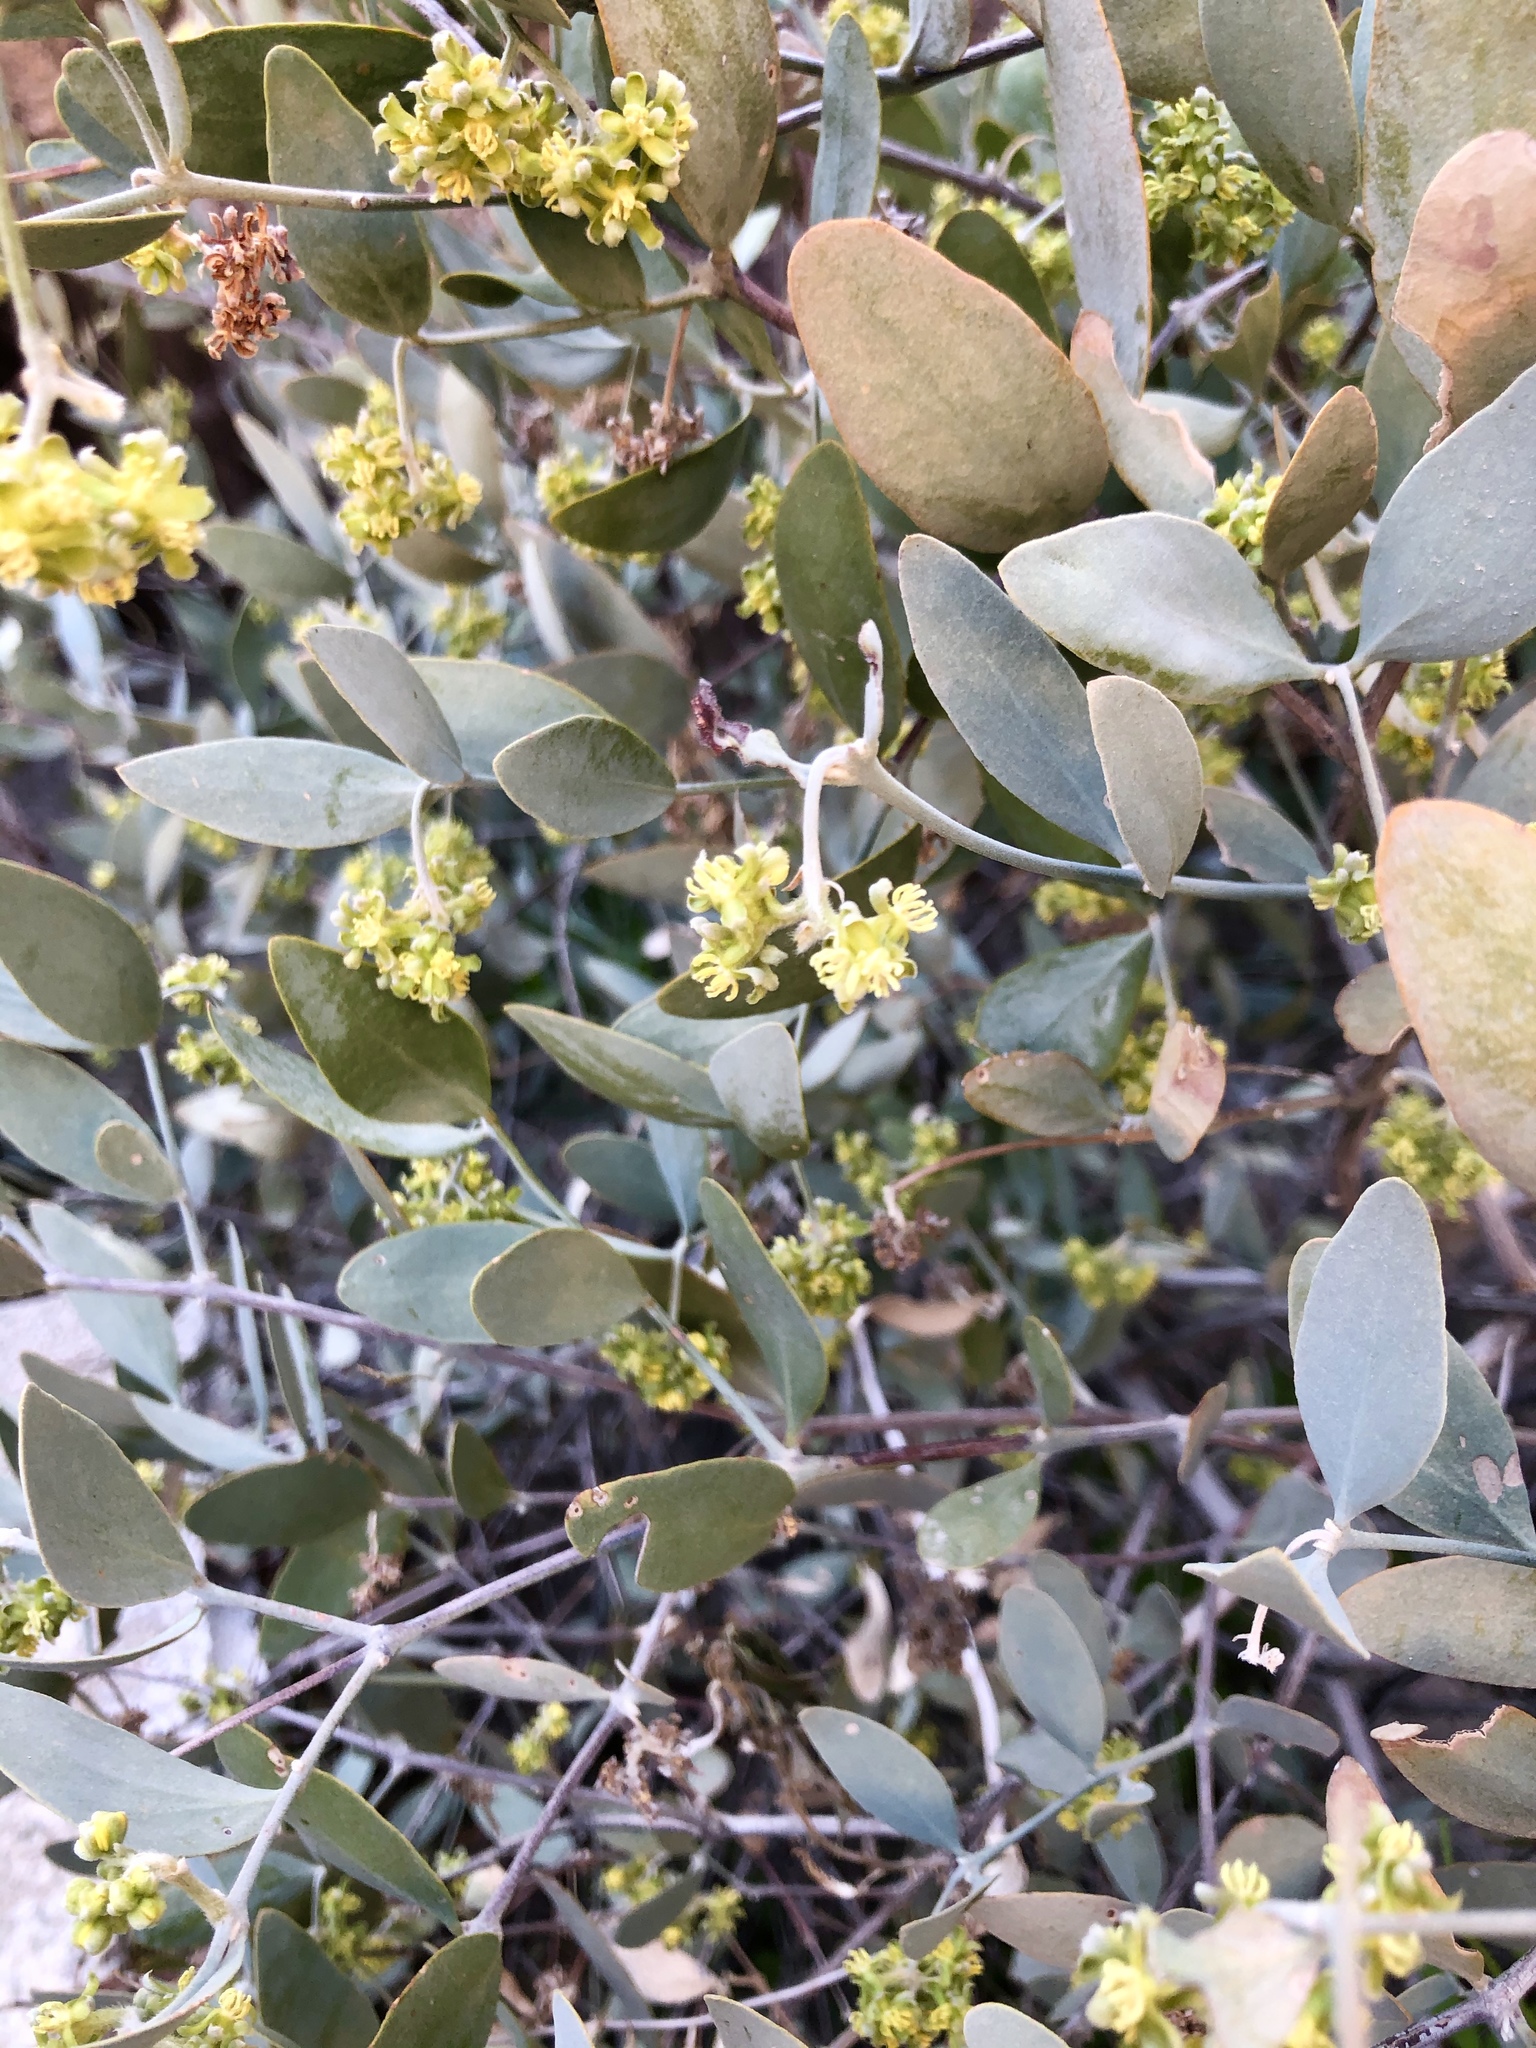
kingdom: Plantae
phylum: Tracheophyta
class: Magnoliopsida
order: Caryophyllales
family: Simmondsiaceae
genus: Simmondsia
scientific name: Simmondsia chinensis
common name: Jojoba
